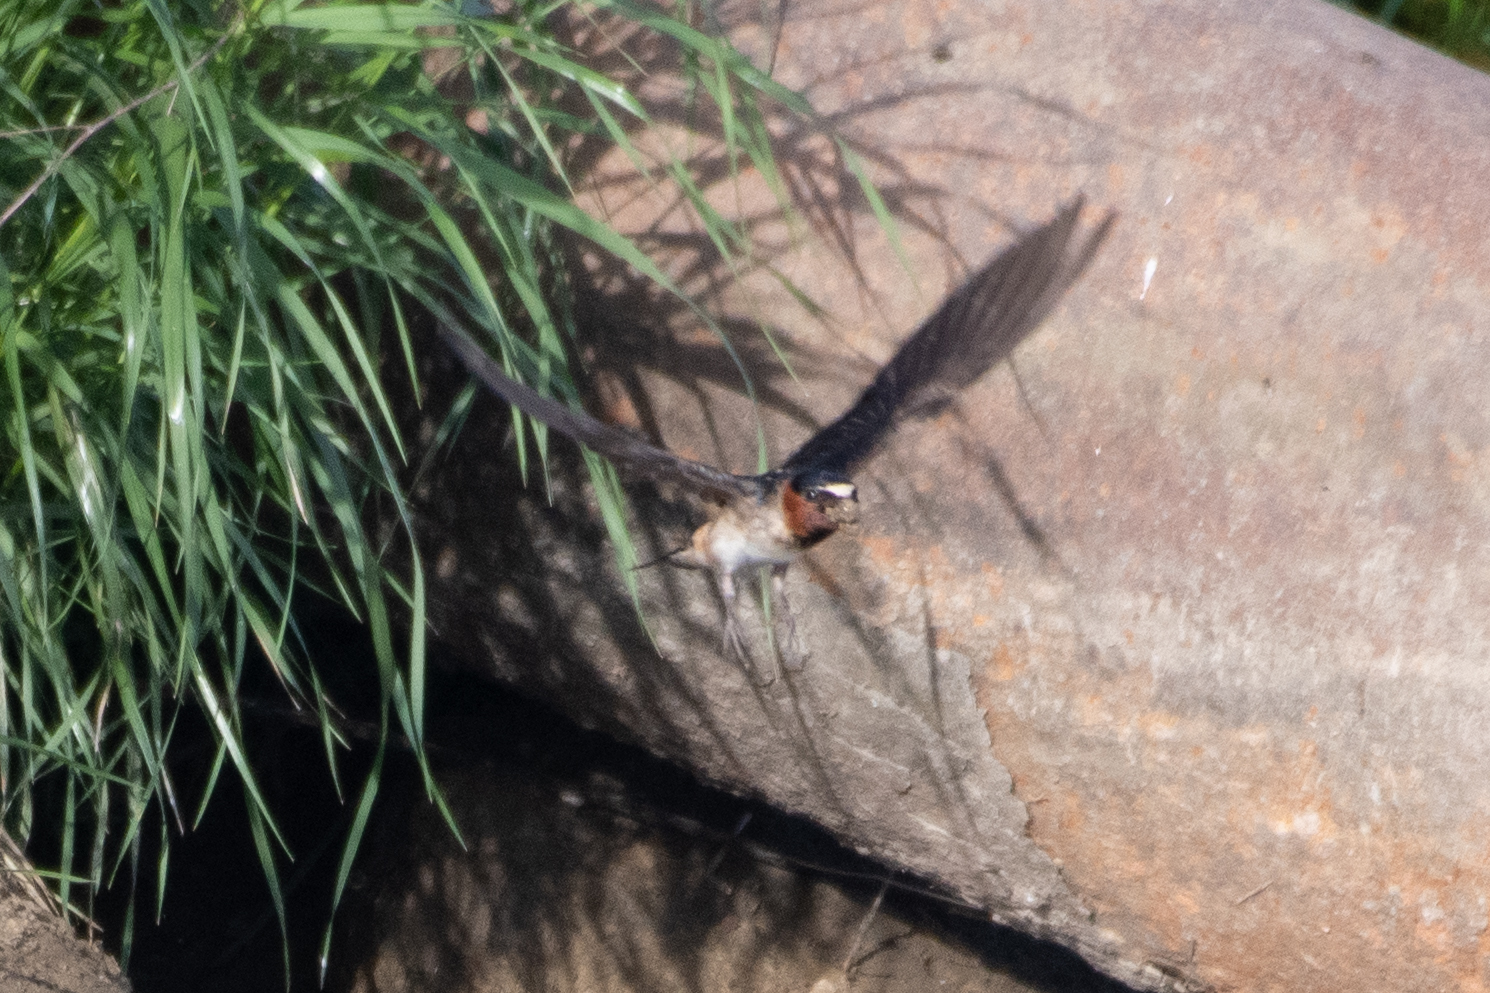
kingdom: Animalia
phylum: Chordata
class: Aves
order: Passeriformes
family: Hirundinidae
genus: Petrochelidon
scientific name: Petrochelidon pyrrhonota
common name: American cliff swallow
